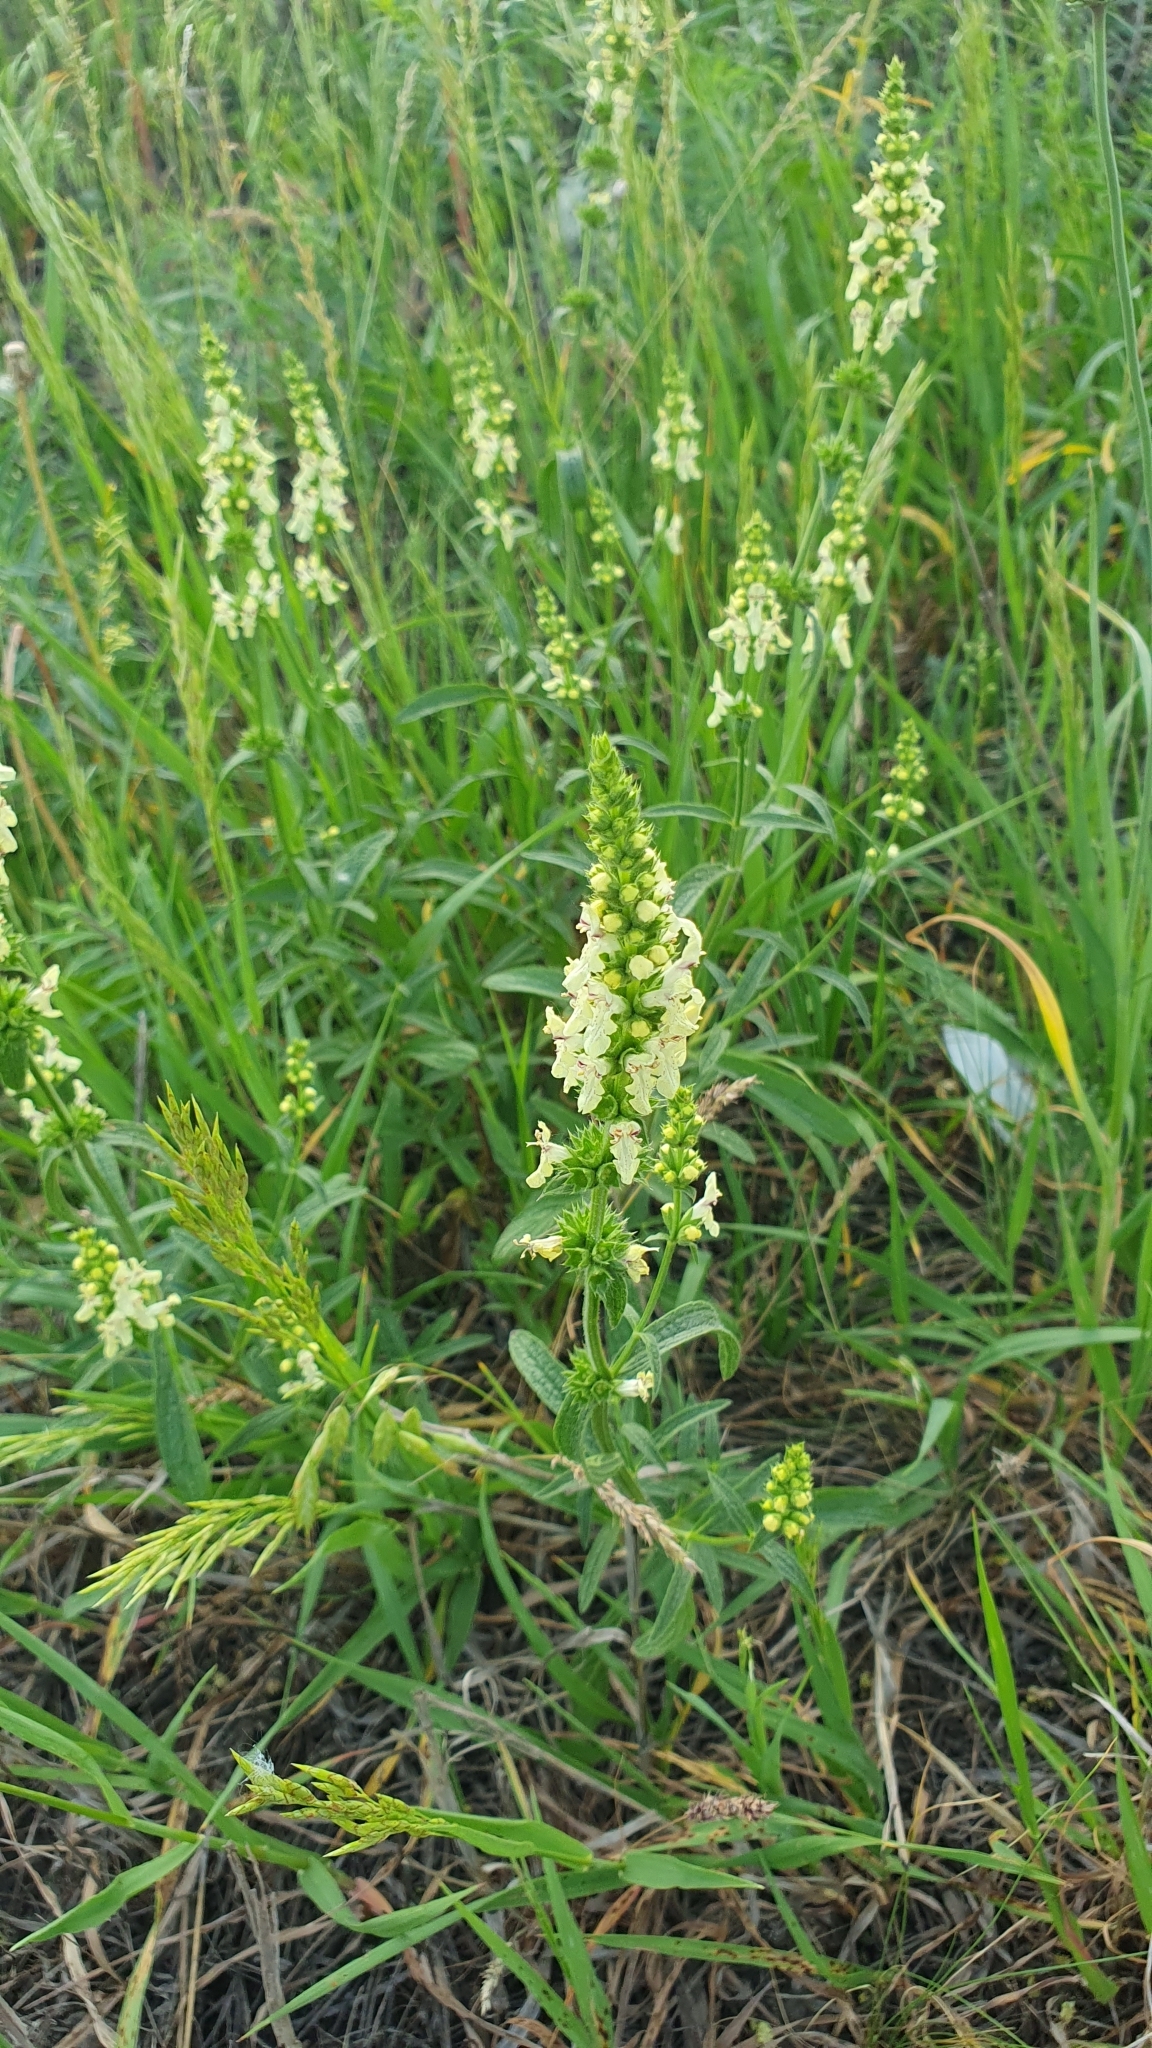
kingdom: Plantae
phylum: Tracheophyta
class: Magnoliopsida
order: Lamiales
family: Lamiaceae
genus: Stachys
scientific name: Stachys recta
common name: Perennial yellow-woundwort
